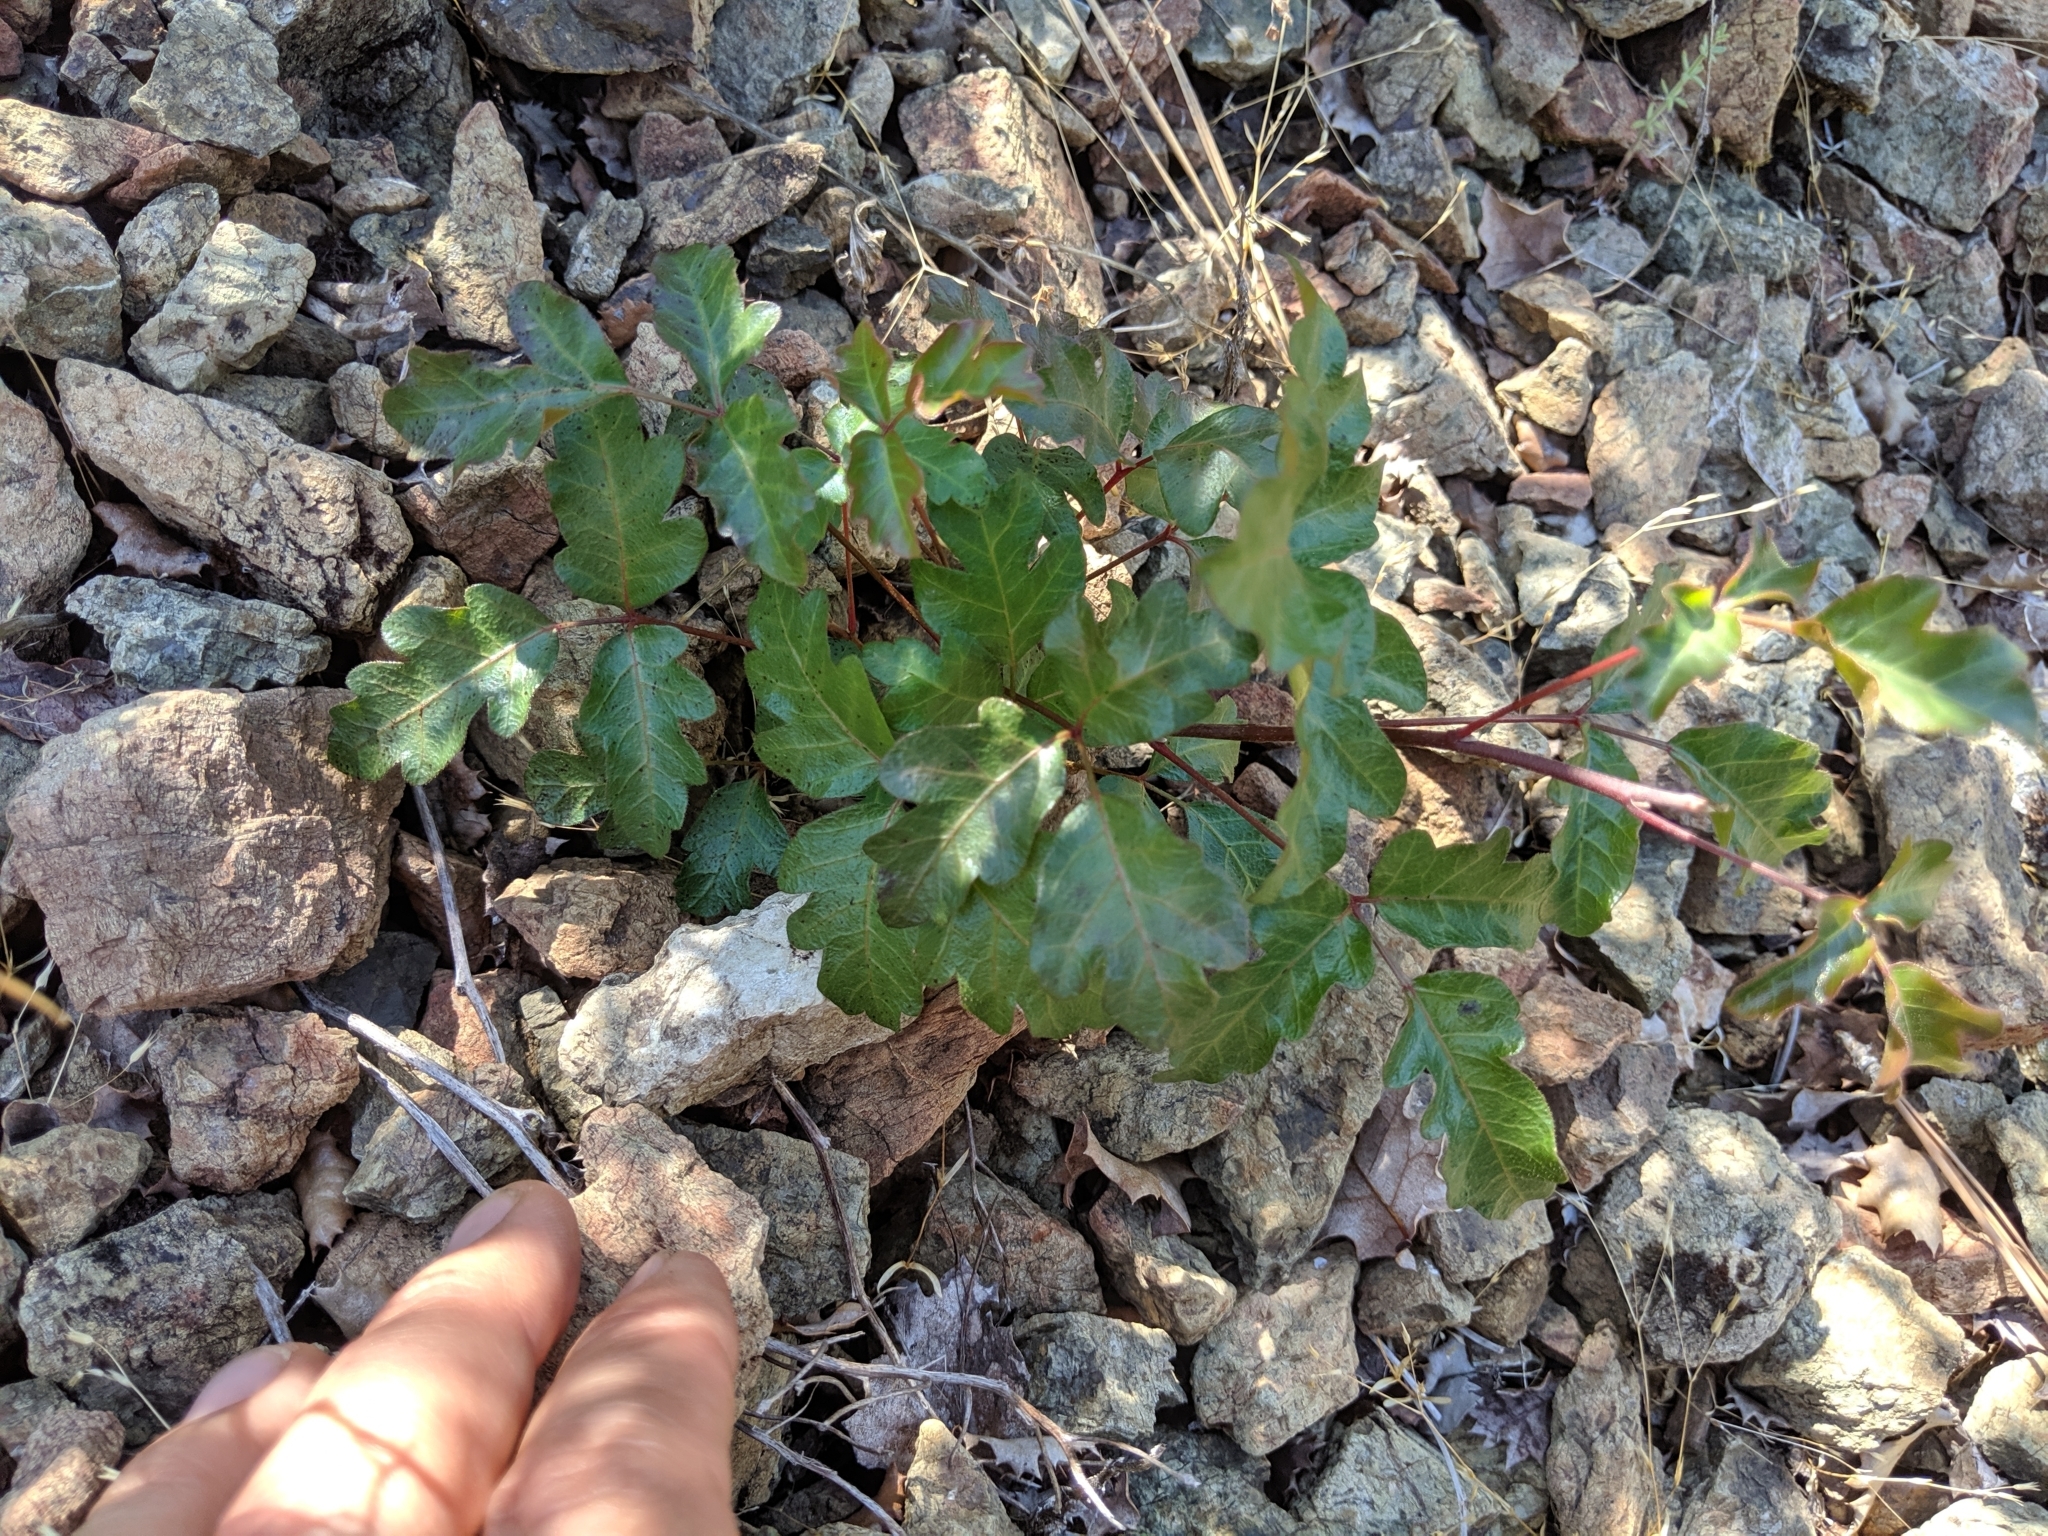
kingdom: Plantae
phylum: Tracheophyta
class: Magnoliopsida
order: Sapindales
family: Anacardiaceae
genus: Toxicodendron
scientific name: Toxicodendron diversilobum
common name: Pacific poison-oak
